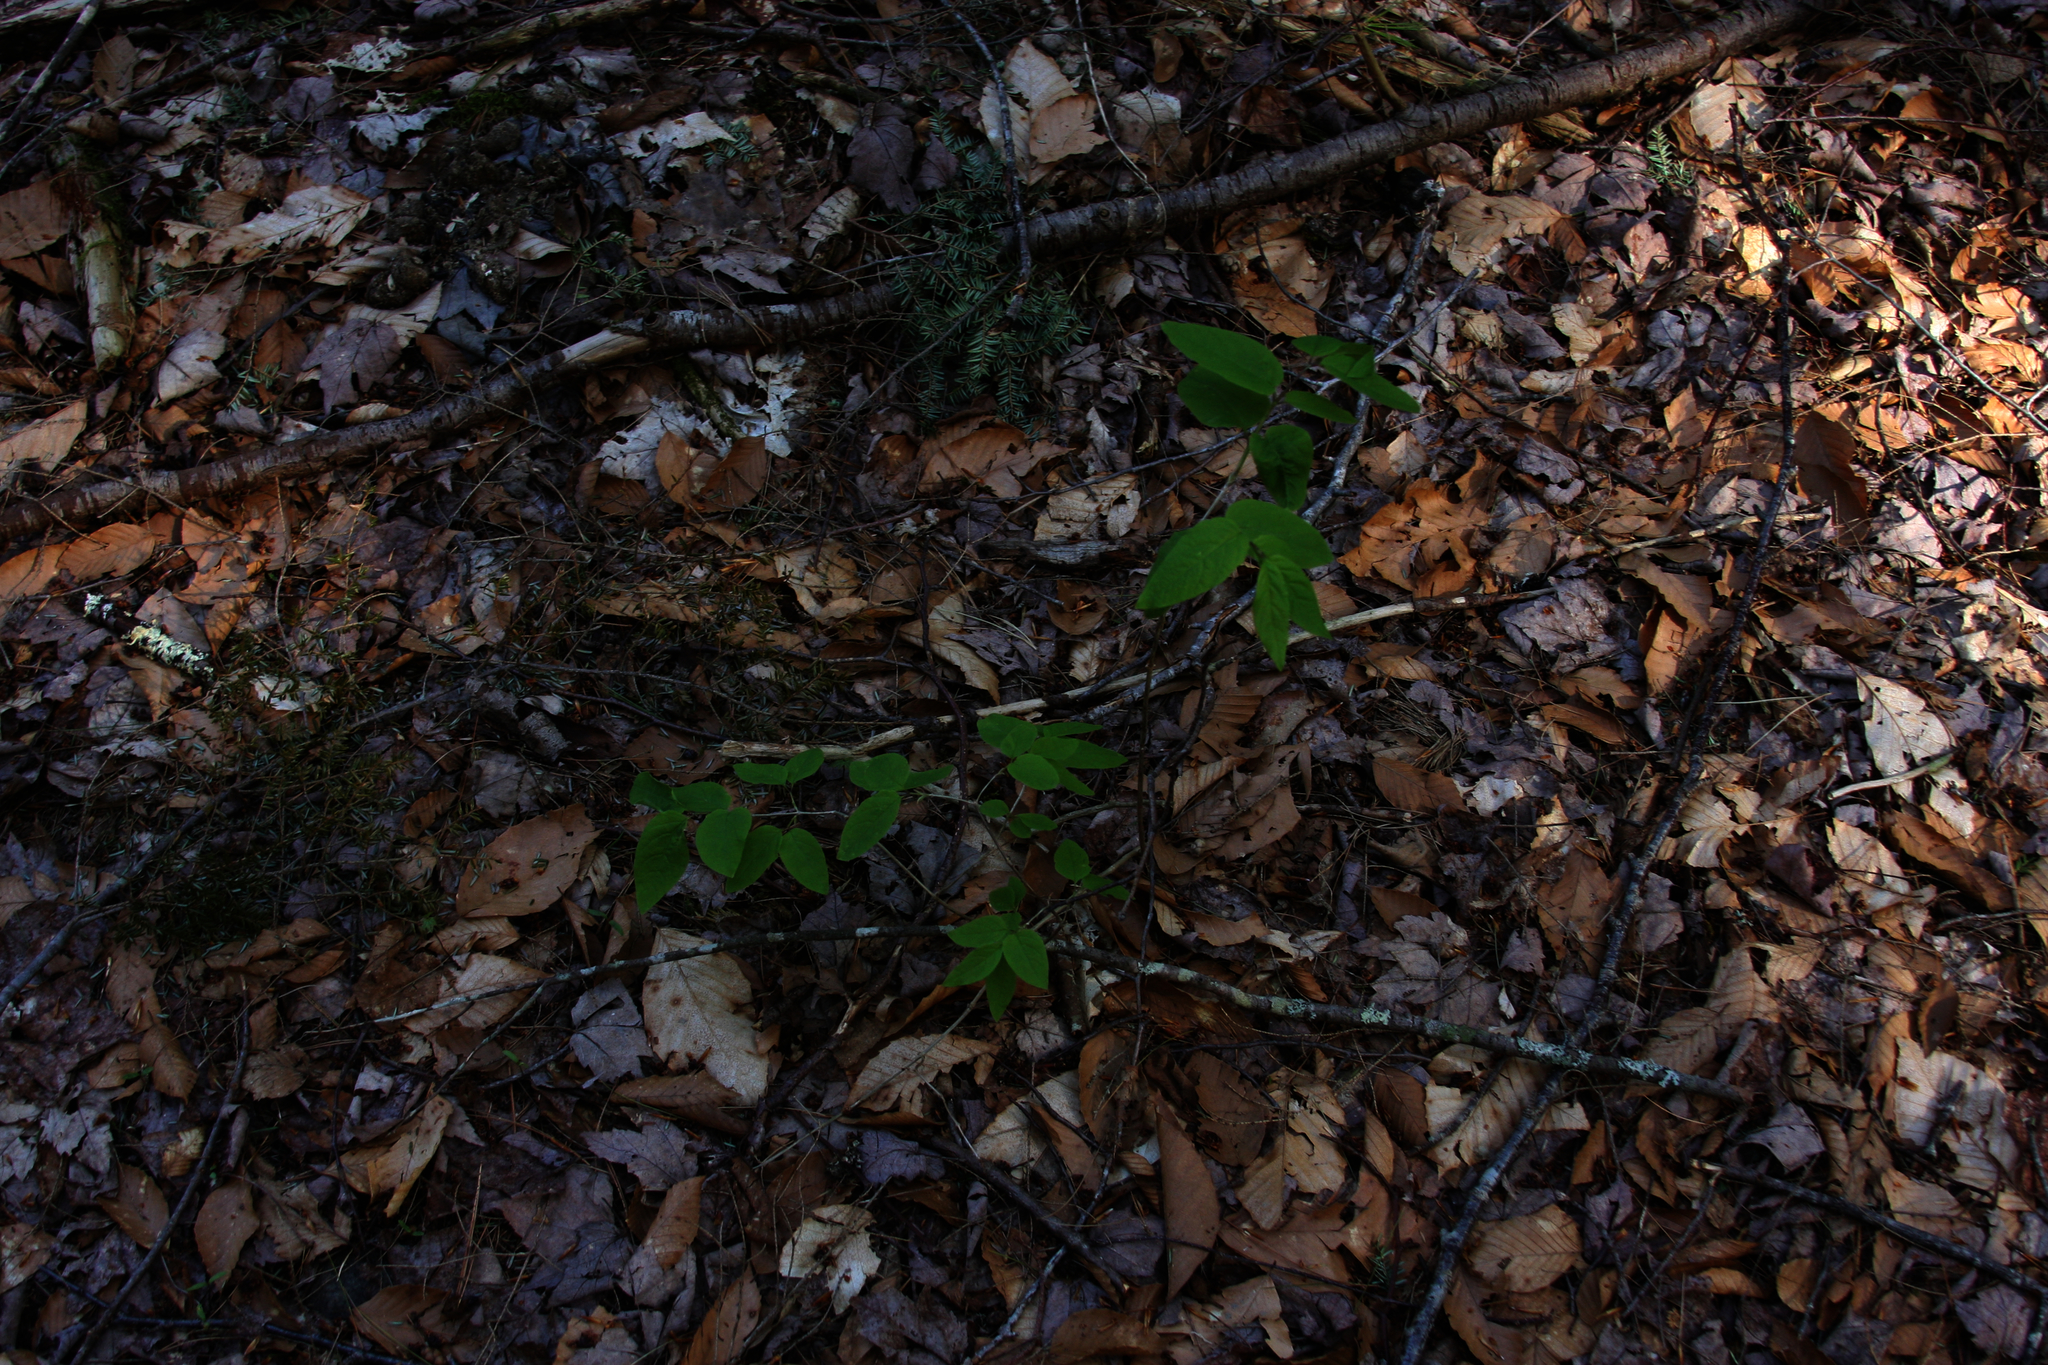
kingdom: Plantae
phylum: Tracheophyta
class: Magnoliopsida
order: Dipsacales
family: Caprifoliaceae
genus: Lonicera
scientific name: Lonicera canadensis
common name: American fly-honeysuckle
